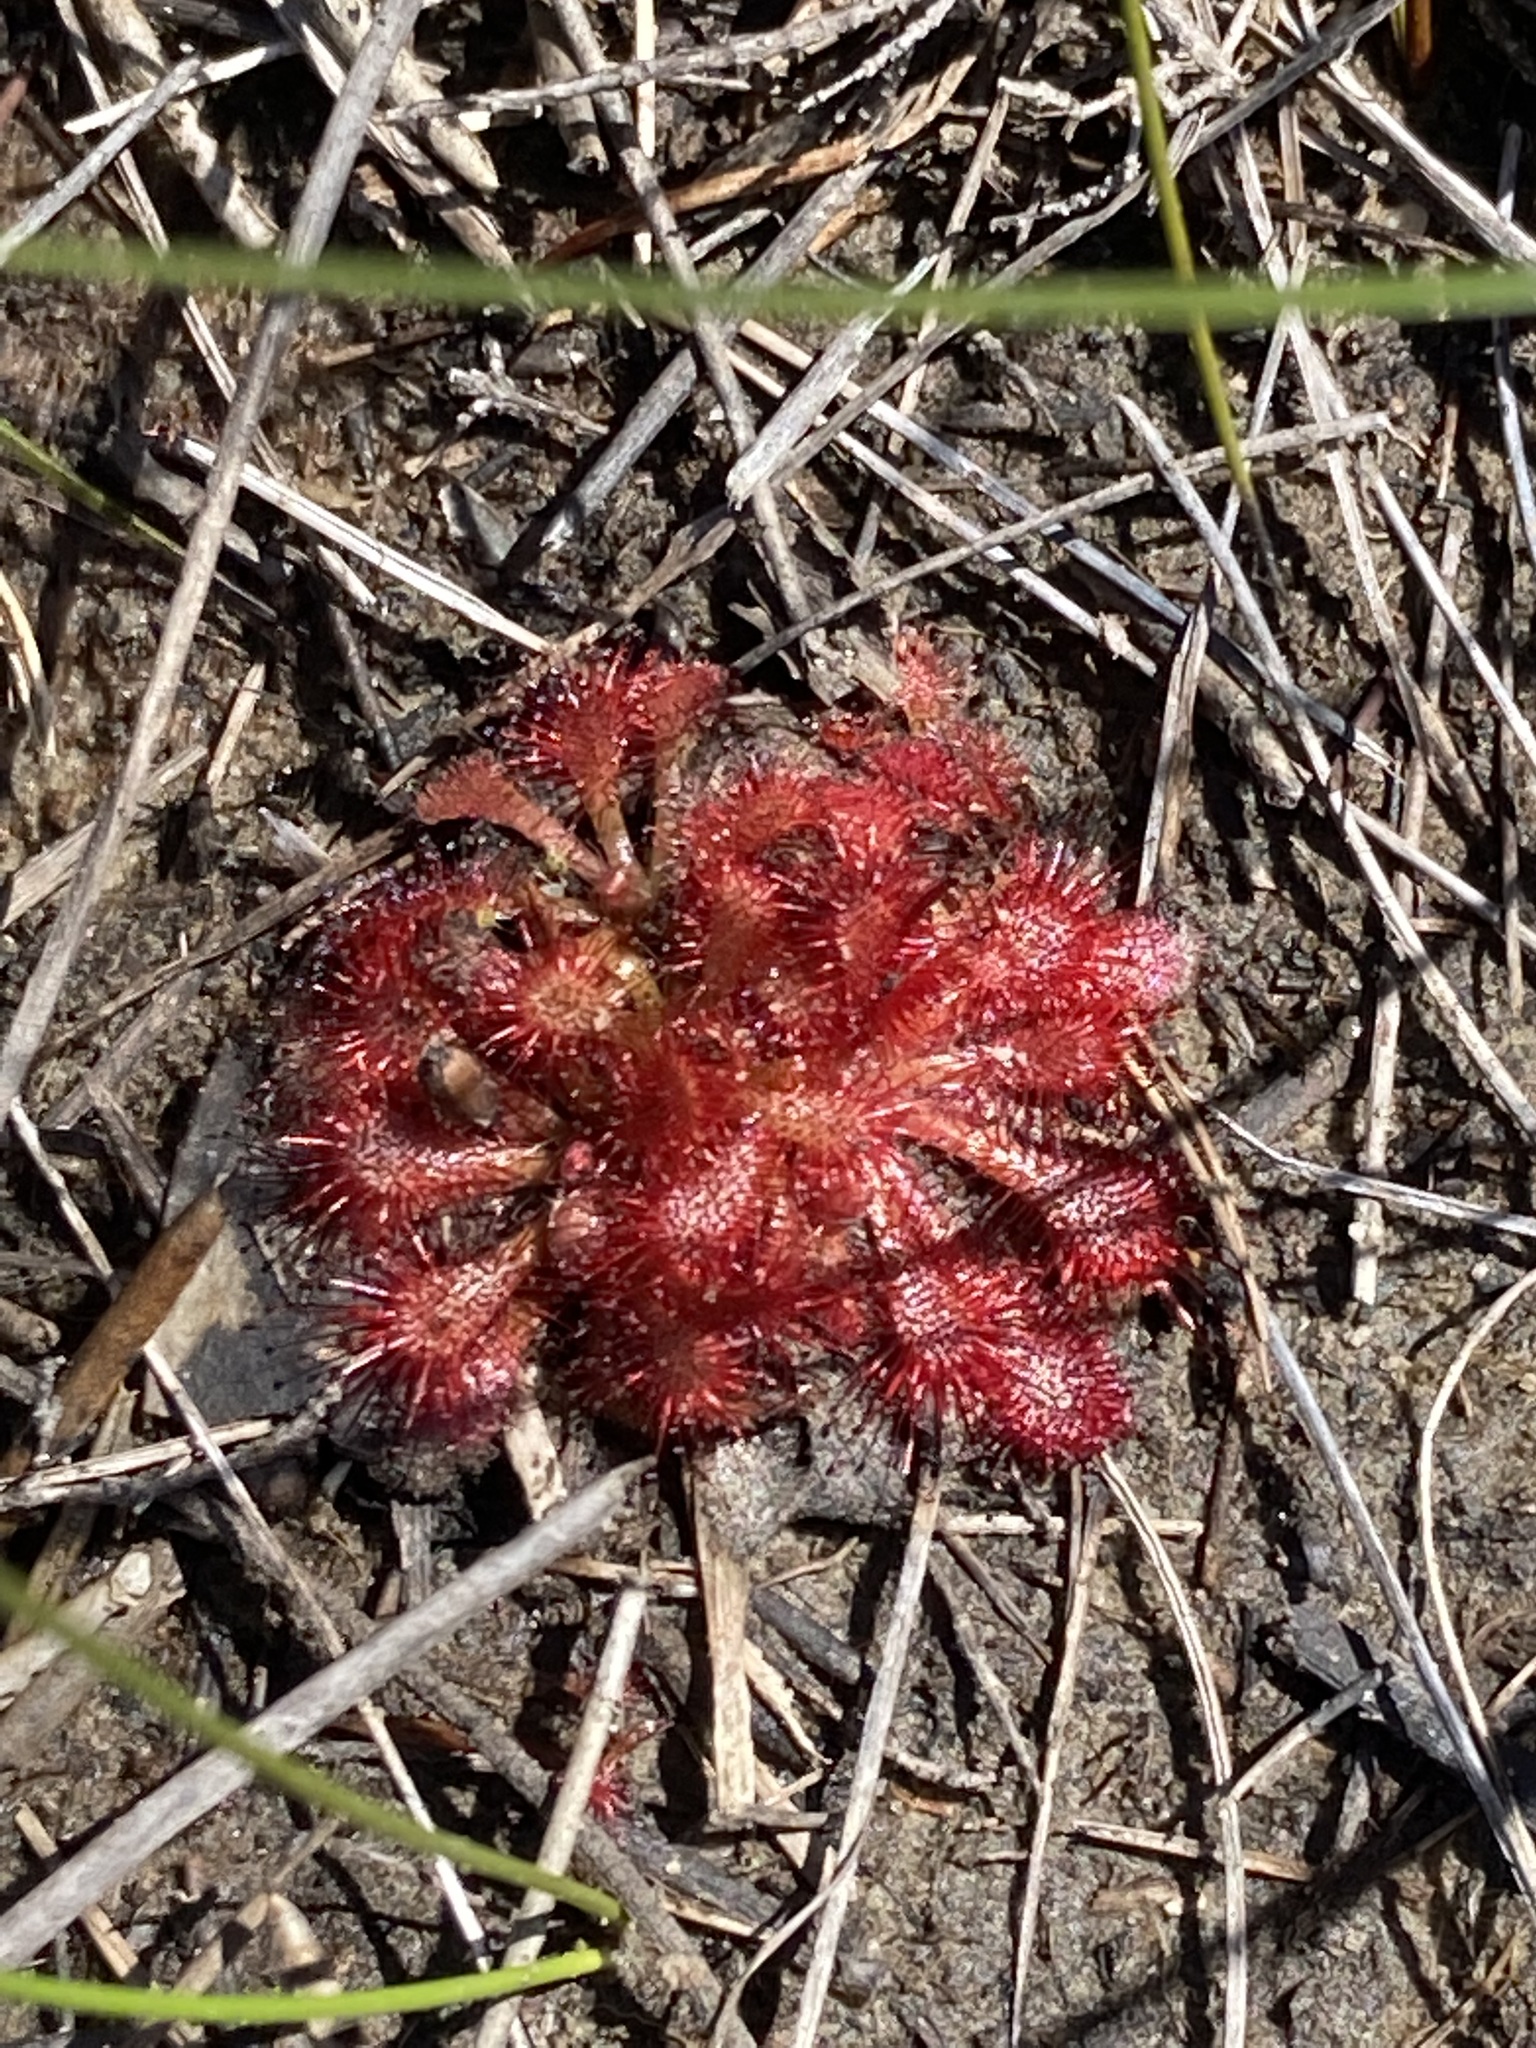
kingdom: Plantae
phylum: Tracheophyta
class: Magnoliopsida
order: Caryophyllales
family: Droseraceae
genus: Drosera
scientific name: Drosera spatulata
